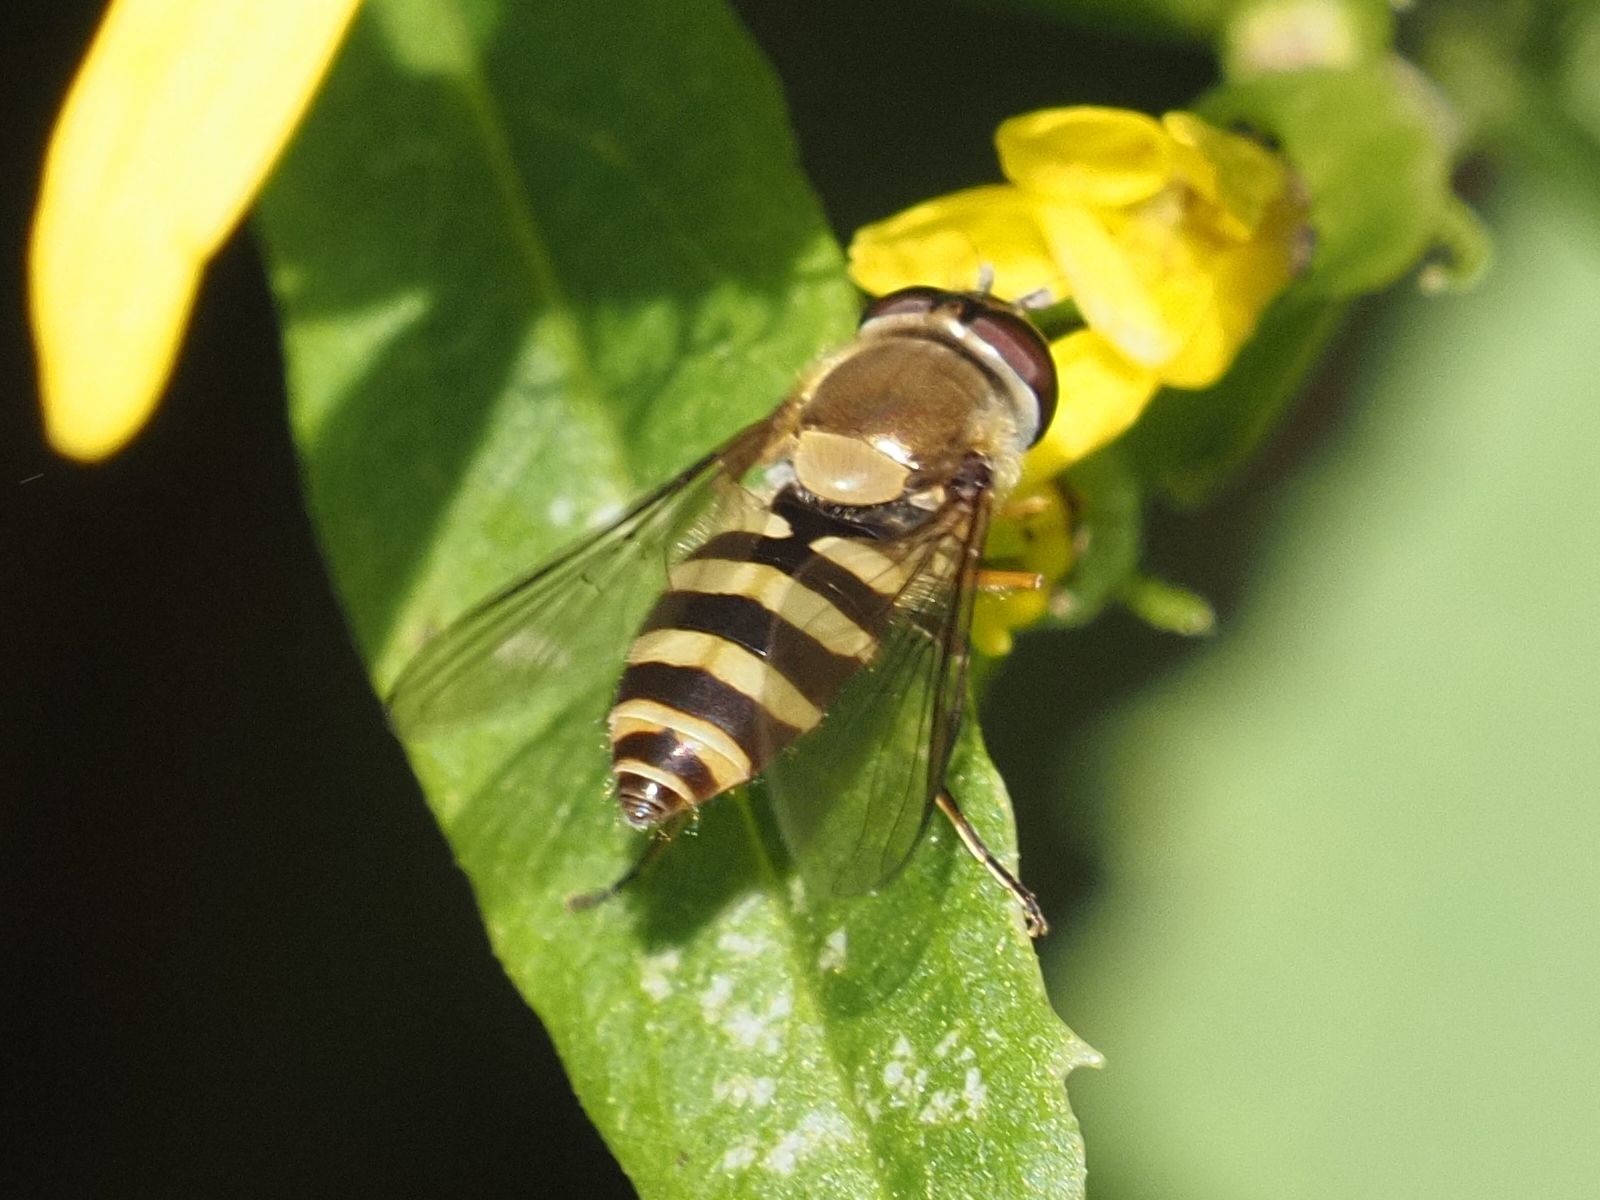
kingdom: Animalia
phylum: Arthropoda
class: Insecta
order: Diptera
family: Syrphidae
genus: Syrphus
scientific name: Syrphus
